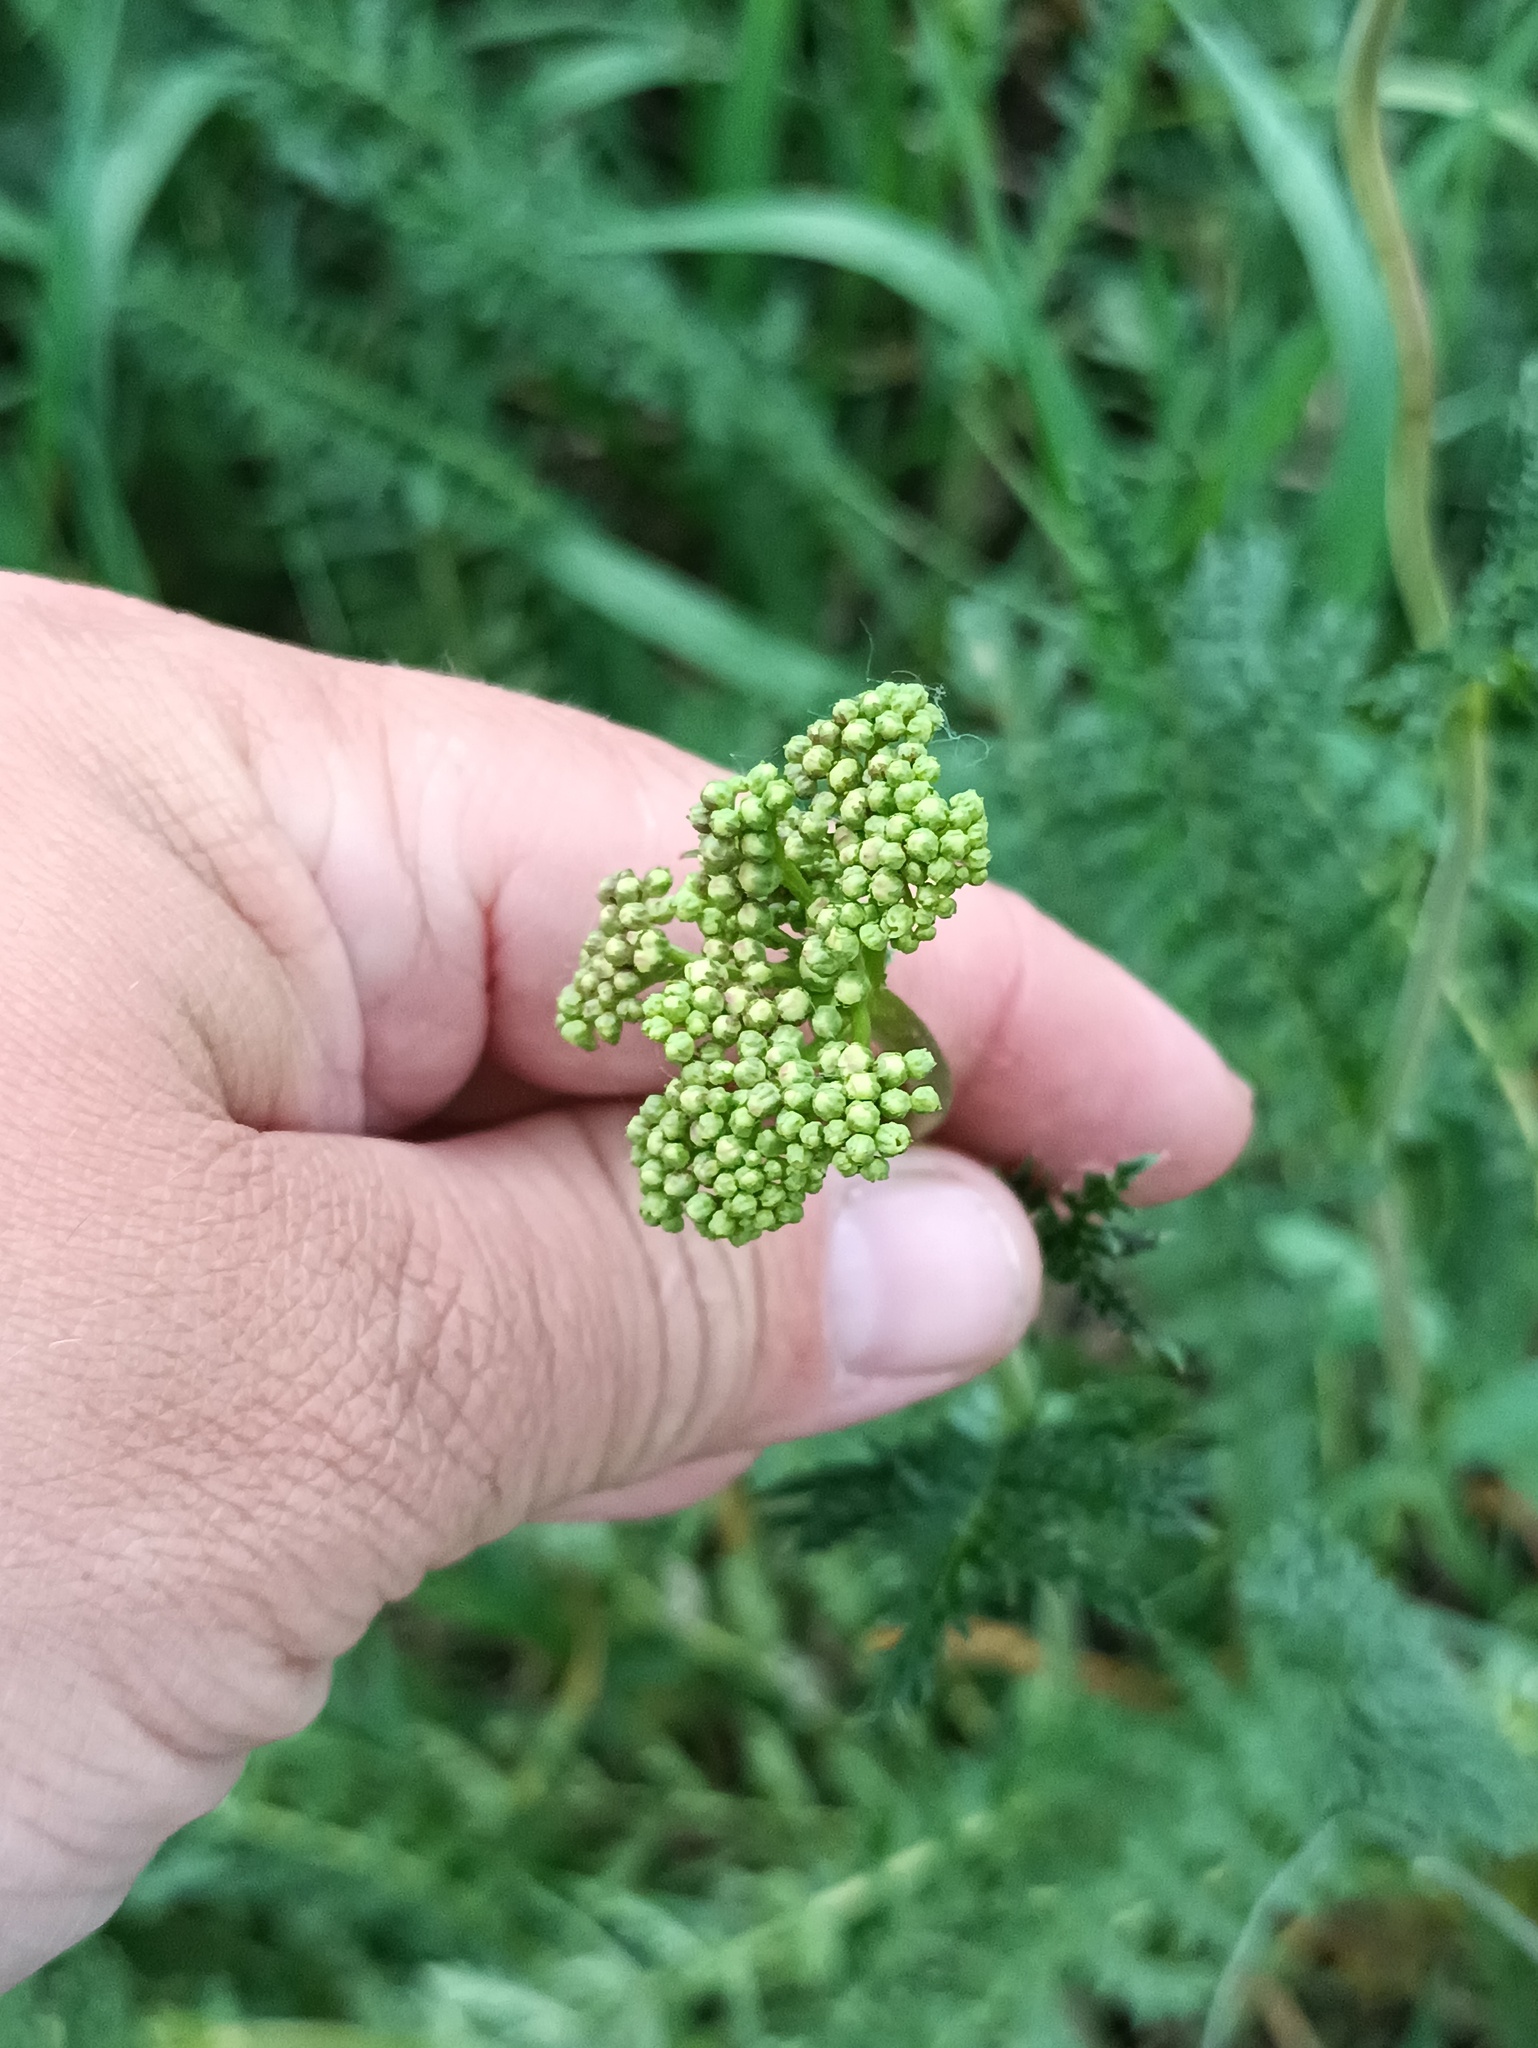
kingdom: Plantae
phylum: Tracheophyta
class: Magnoliopsida
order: Rosales
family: Rosaceae
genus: Filipendula
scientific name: Filipendula vulgaris
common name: Dropwort
